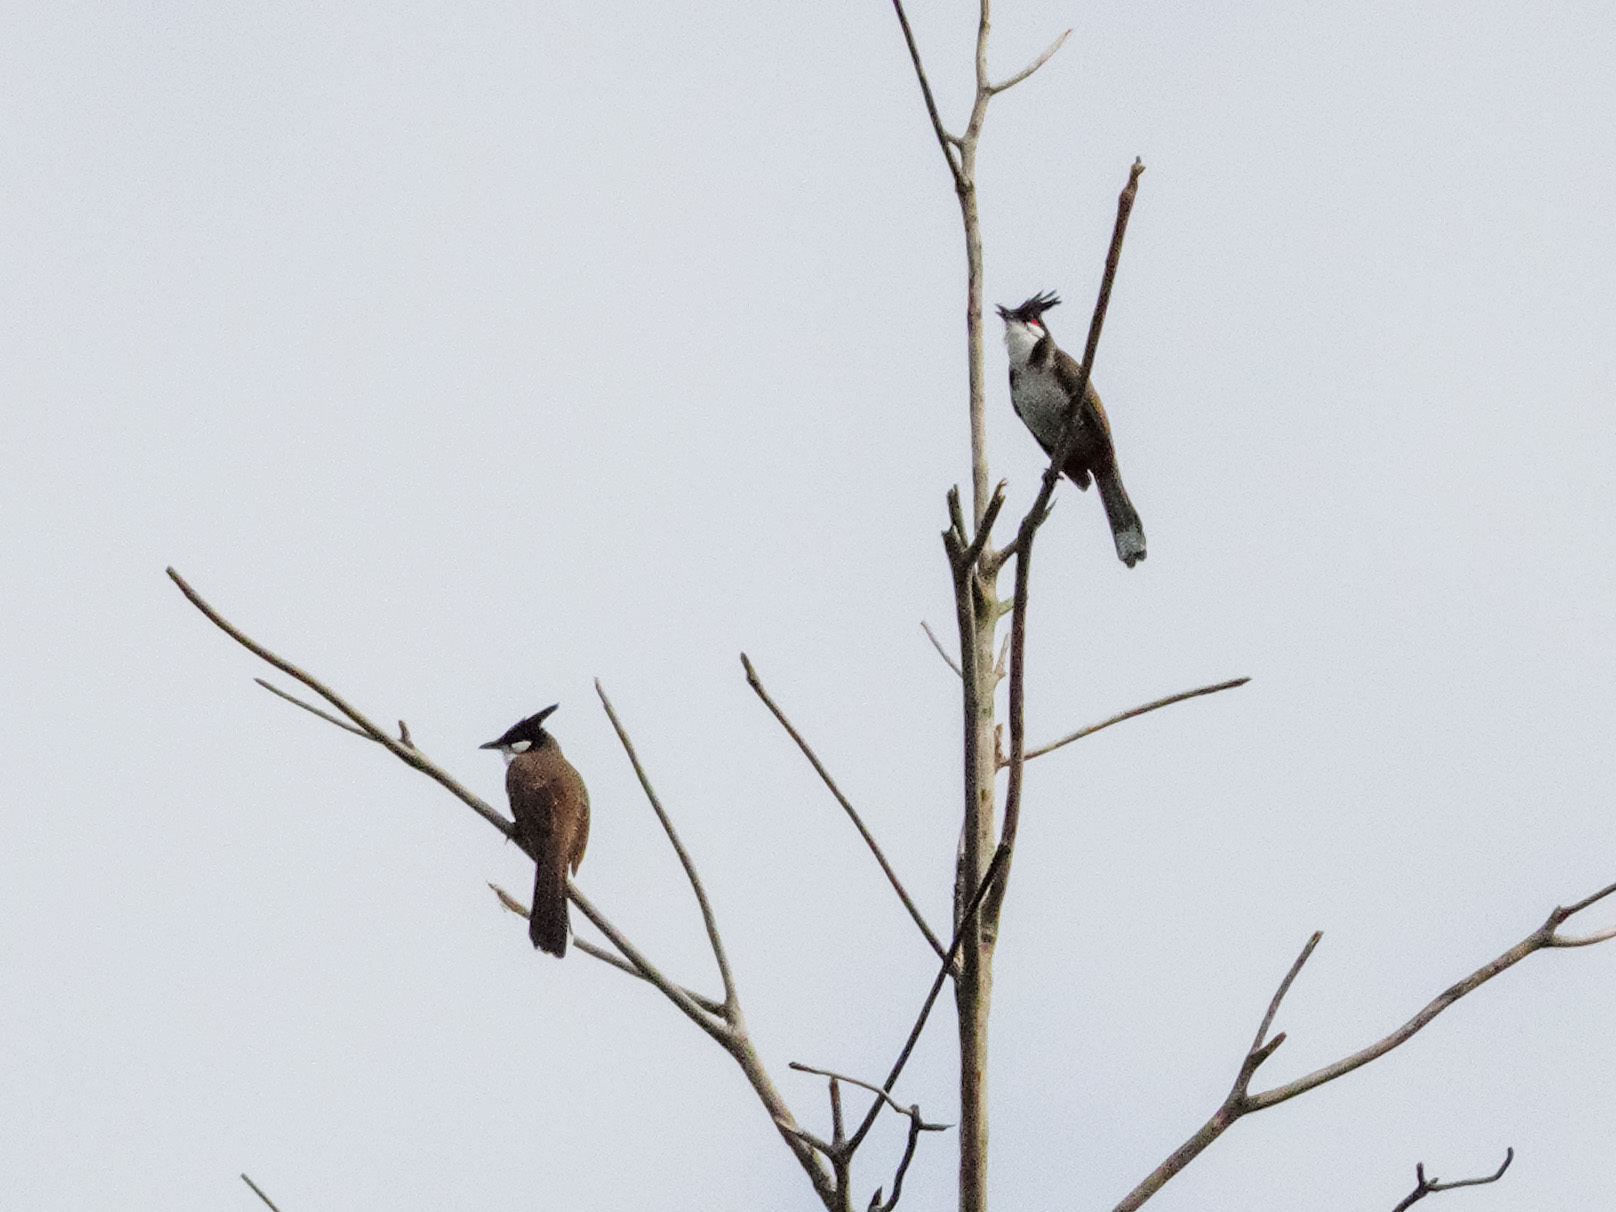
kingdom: Animalia
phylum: Chordata
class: Aves
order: Passeriformes
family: Pycnonotidae
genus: Pycnonotus
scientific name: Pycnonotus jocosus
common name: Red-whiskered bulbul
